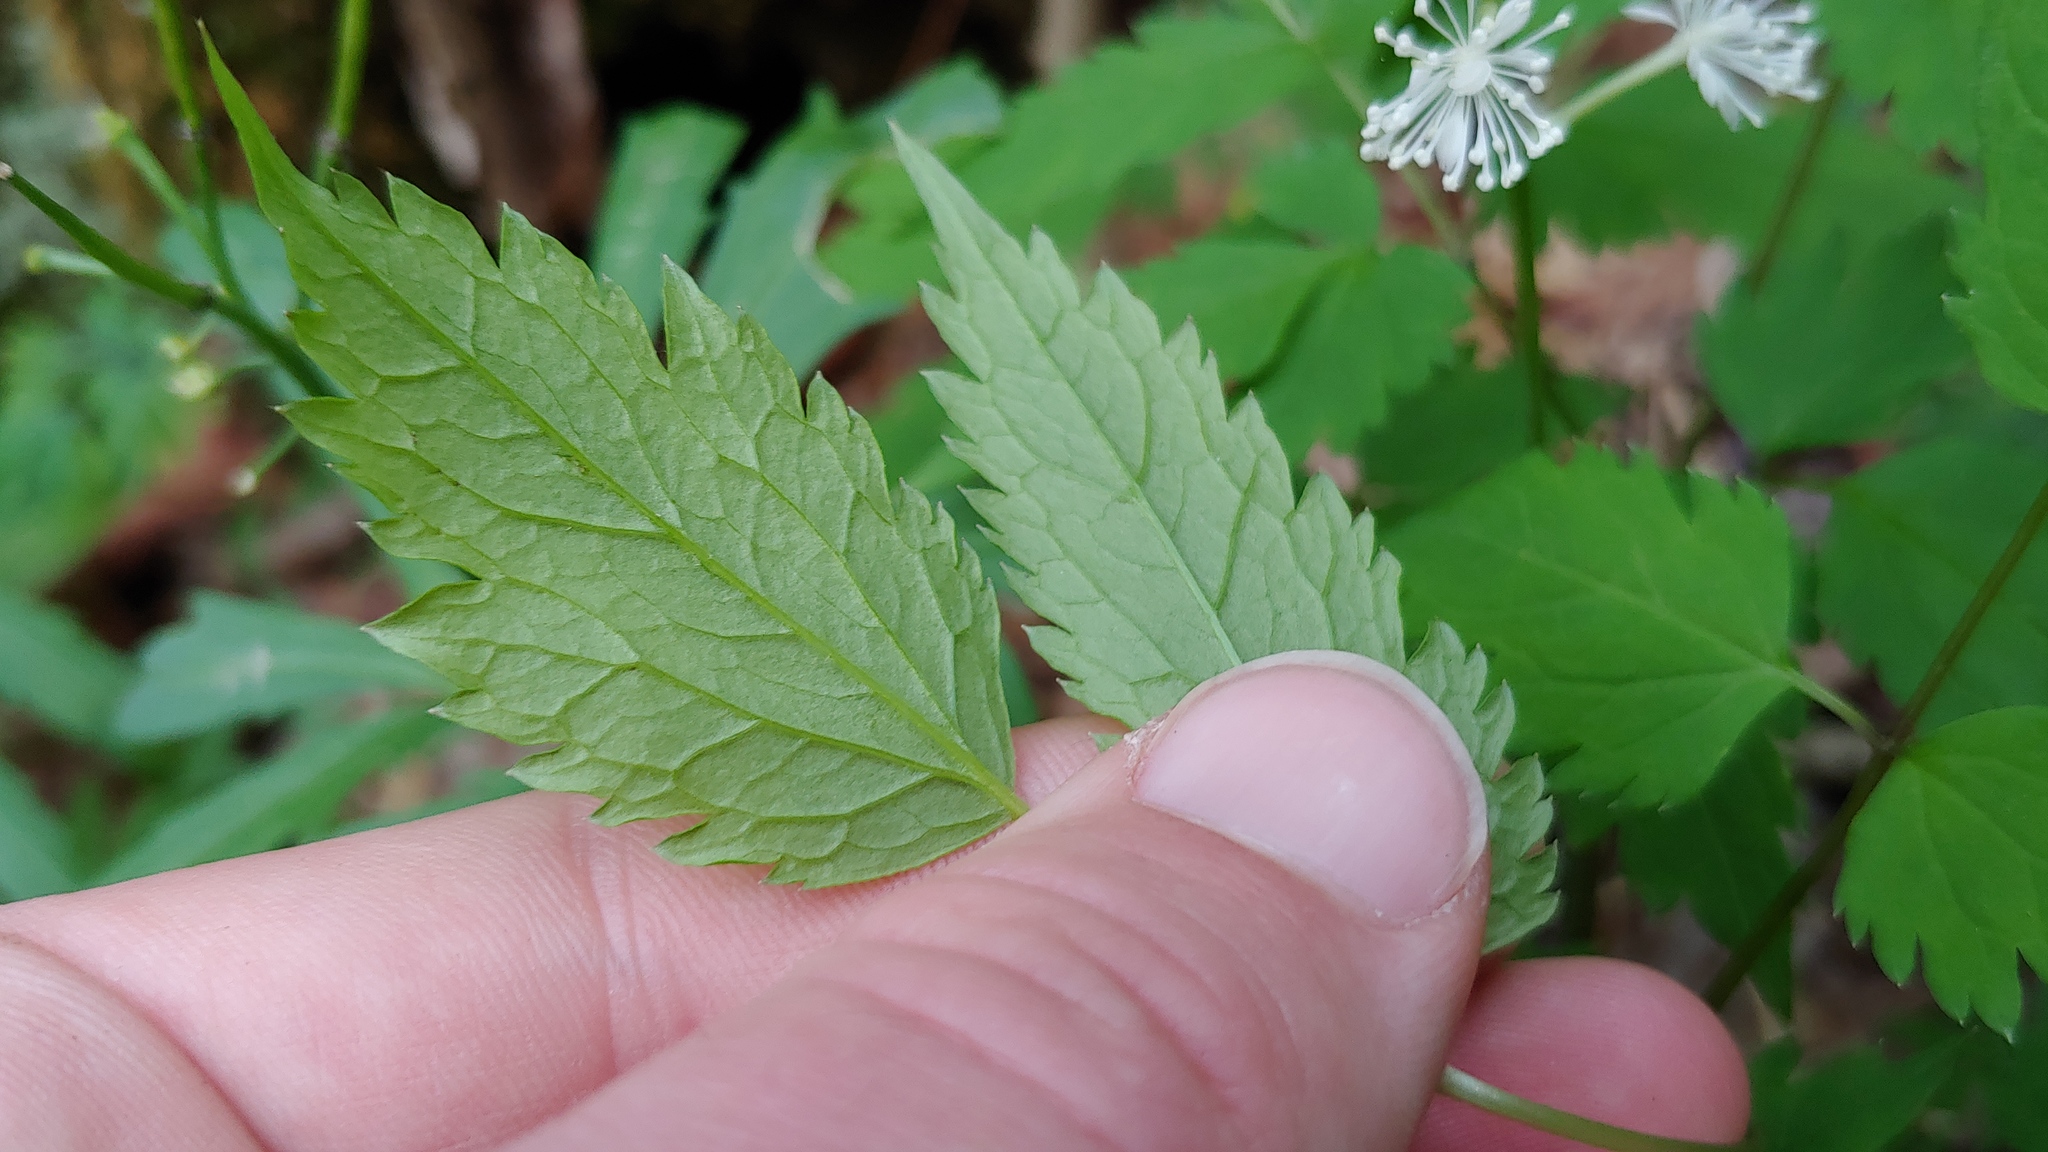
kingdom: Plantae
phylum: Tracheophyta
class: Magnoliopsida
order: Ranunculales
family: Ranunculaceae
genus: Actaea
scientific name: Actaea pachypoda
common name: Doll's-eyes
